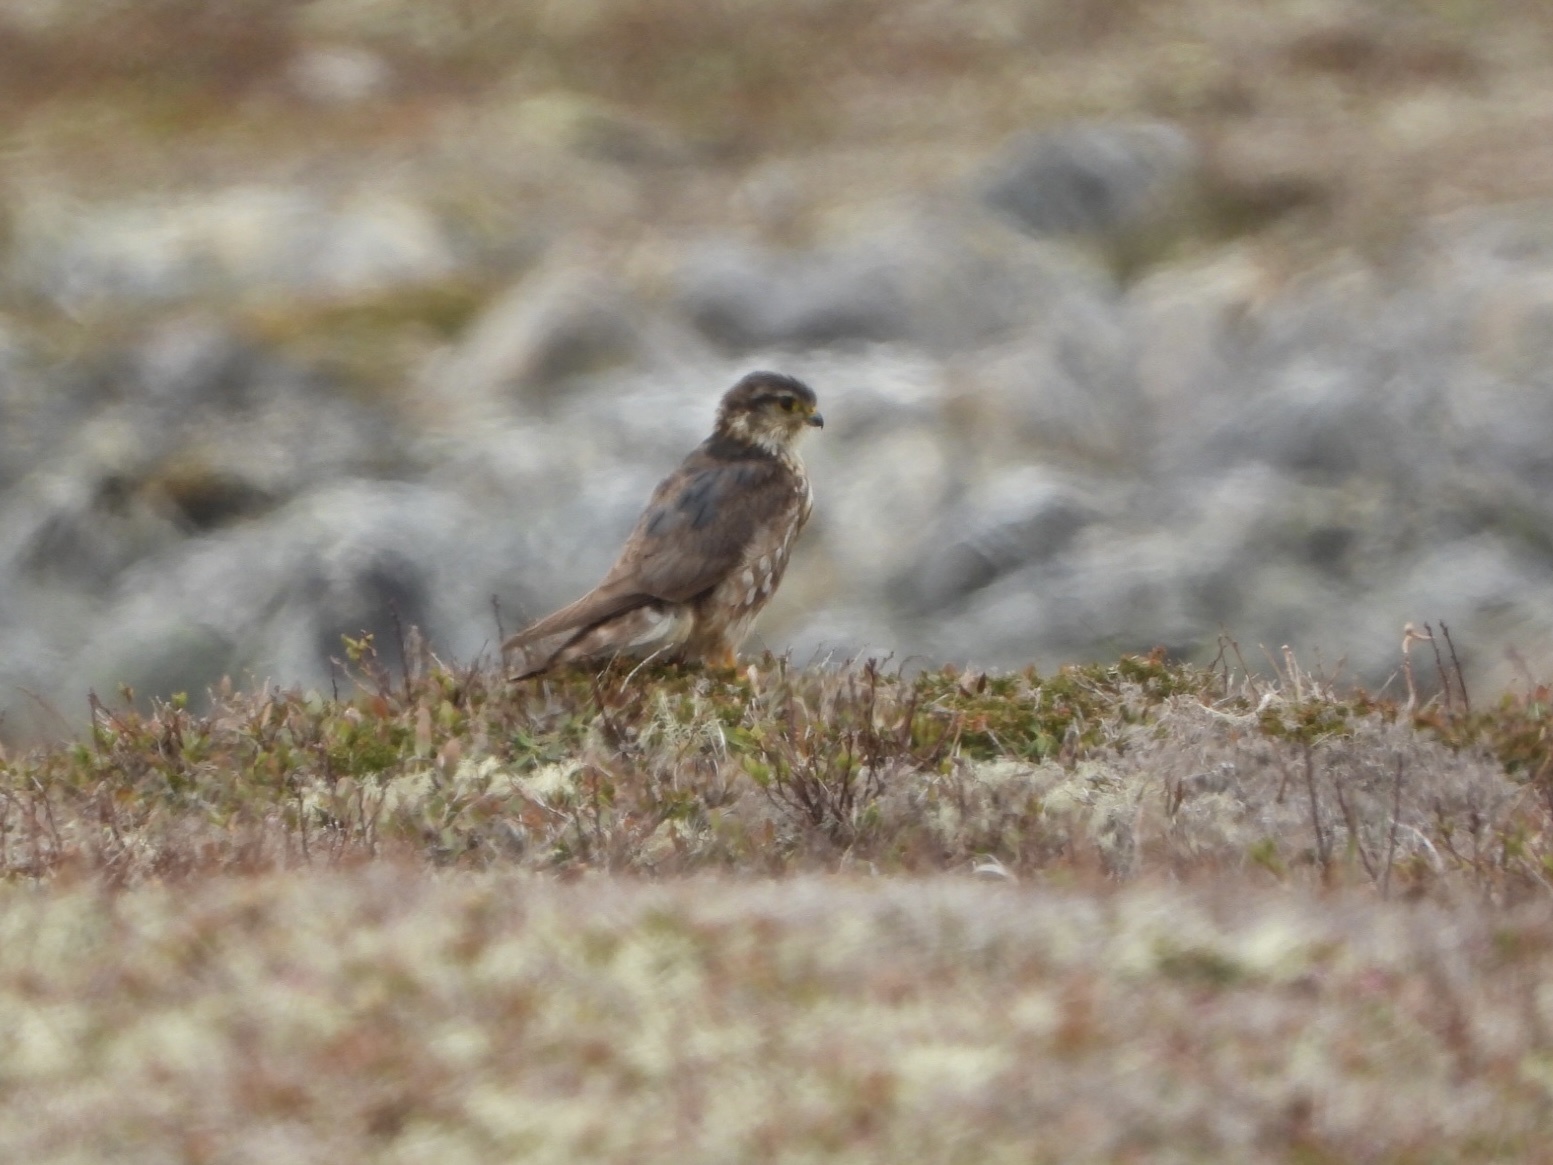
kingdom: Animalia
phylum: Chordata
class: Aves
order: Falconiformes
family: Falconidae
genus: Falco
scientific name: Falco columbarius
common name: Merlin
